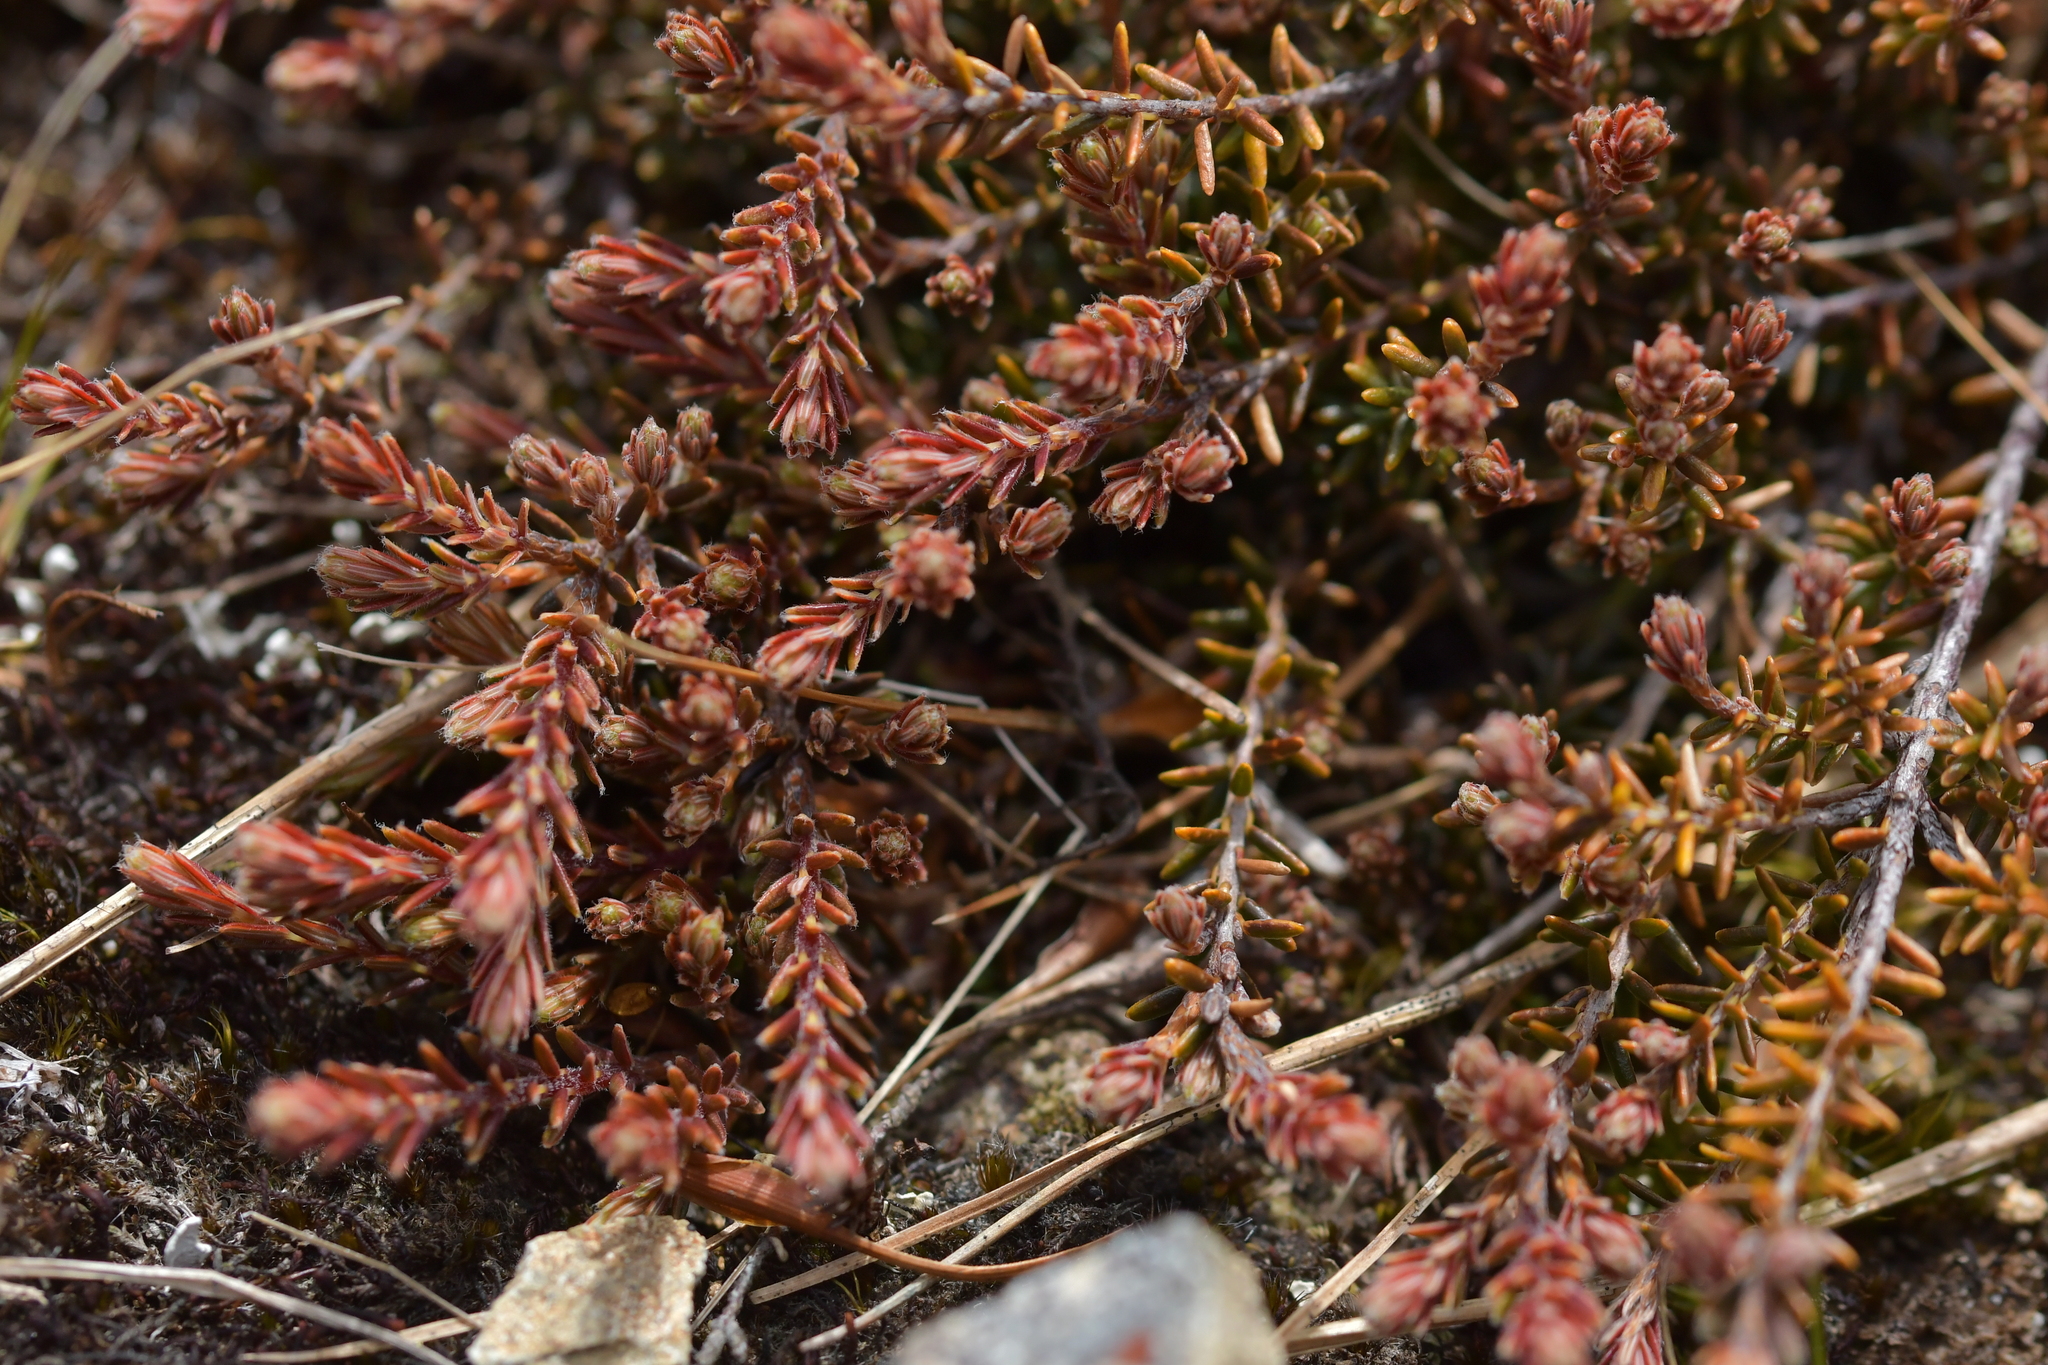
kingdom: Plantae
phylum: Tracheophyta
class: Magnoliopsida
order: Ericales
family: Ericaceae
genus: Androstoma
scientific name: Androstoma empetrifolia
